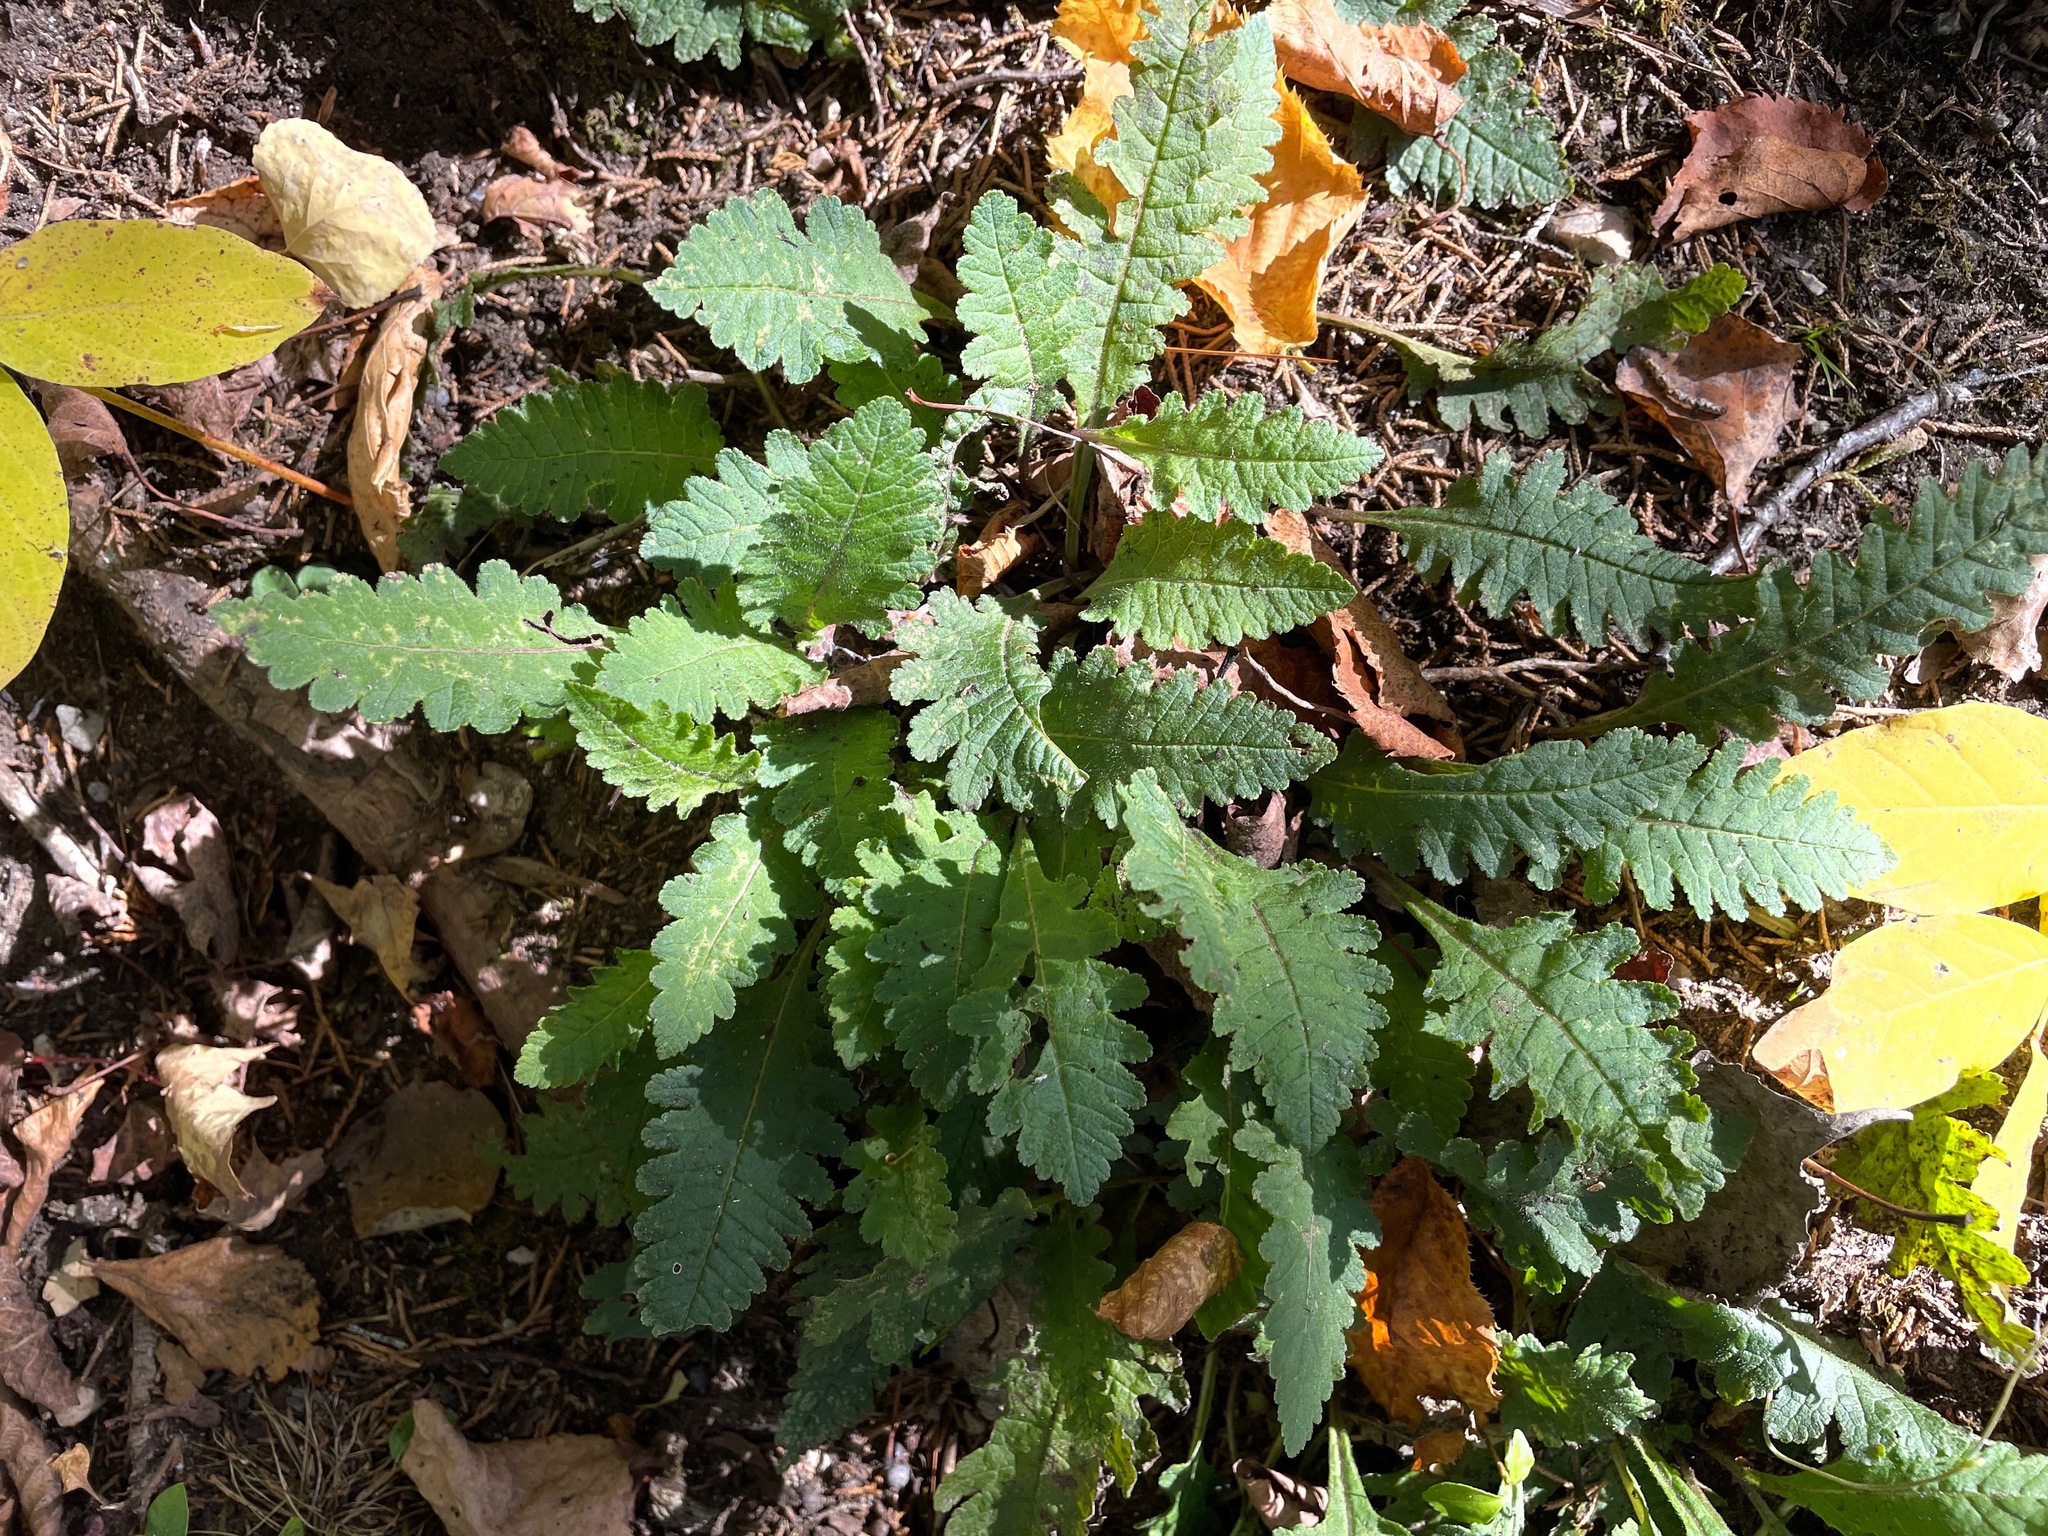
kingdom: Plantae
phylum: Tracheophyta
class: Magnoliopsida
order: Lamiales
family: Orobanchaceae
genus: Pedicularis
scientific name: Pedicularis canadensis
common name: Early lousewort
